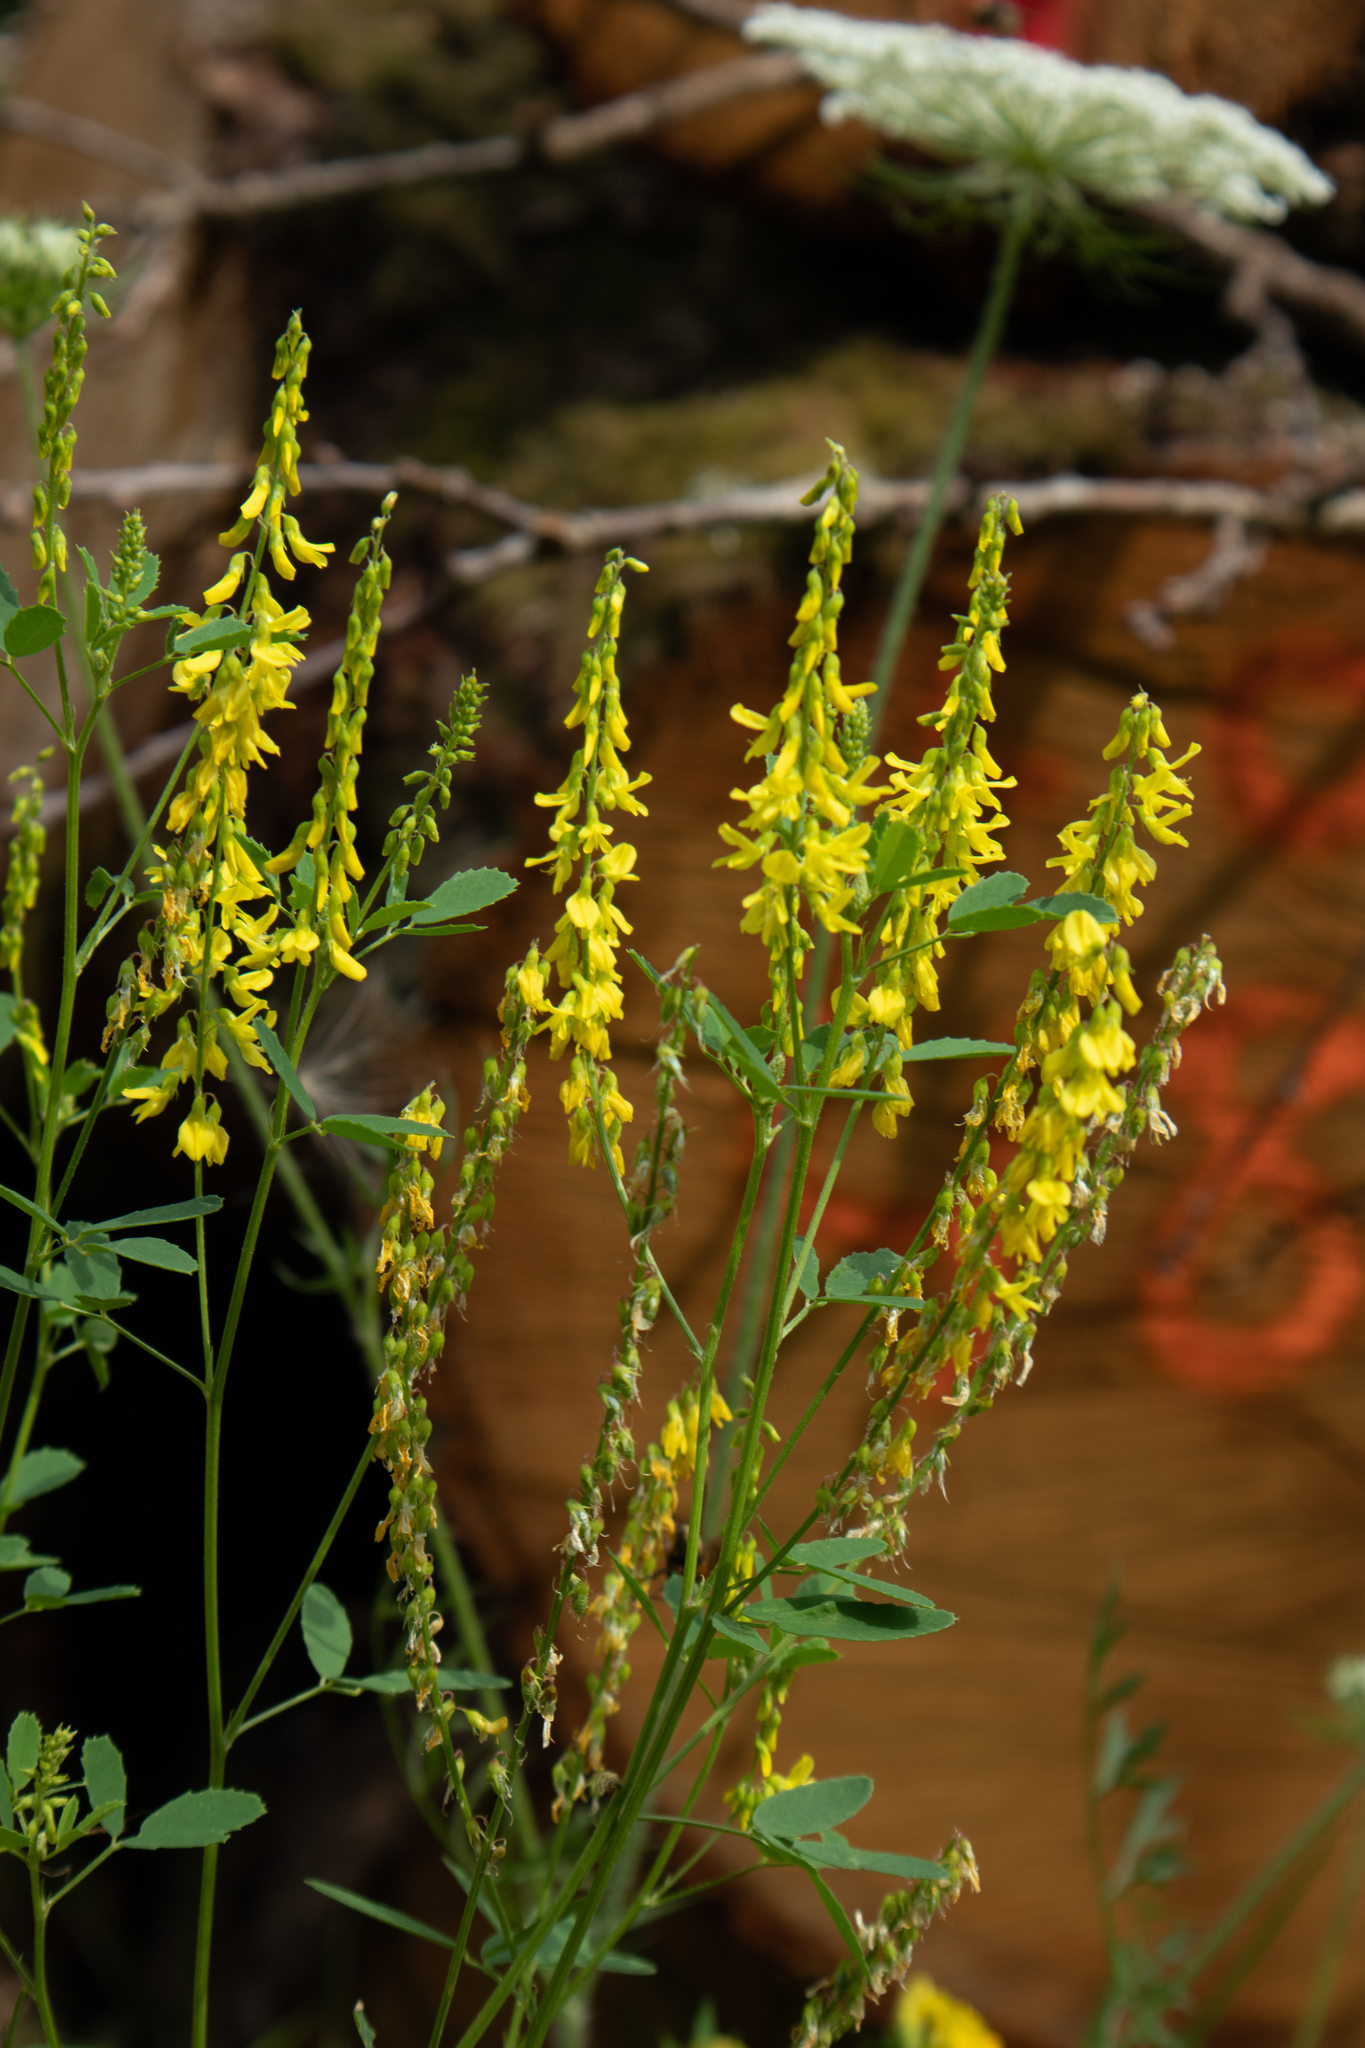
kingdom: Plantae
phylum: Tracheophyta
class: Magnoliopsida
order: Fabales
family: Fabaceae
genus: Melilotus
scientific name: Melilotus officinalis
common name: Sweetclover
